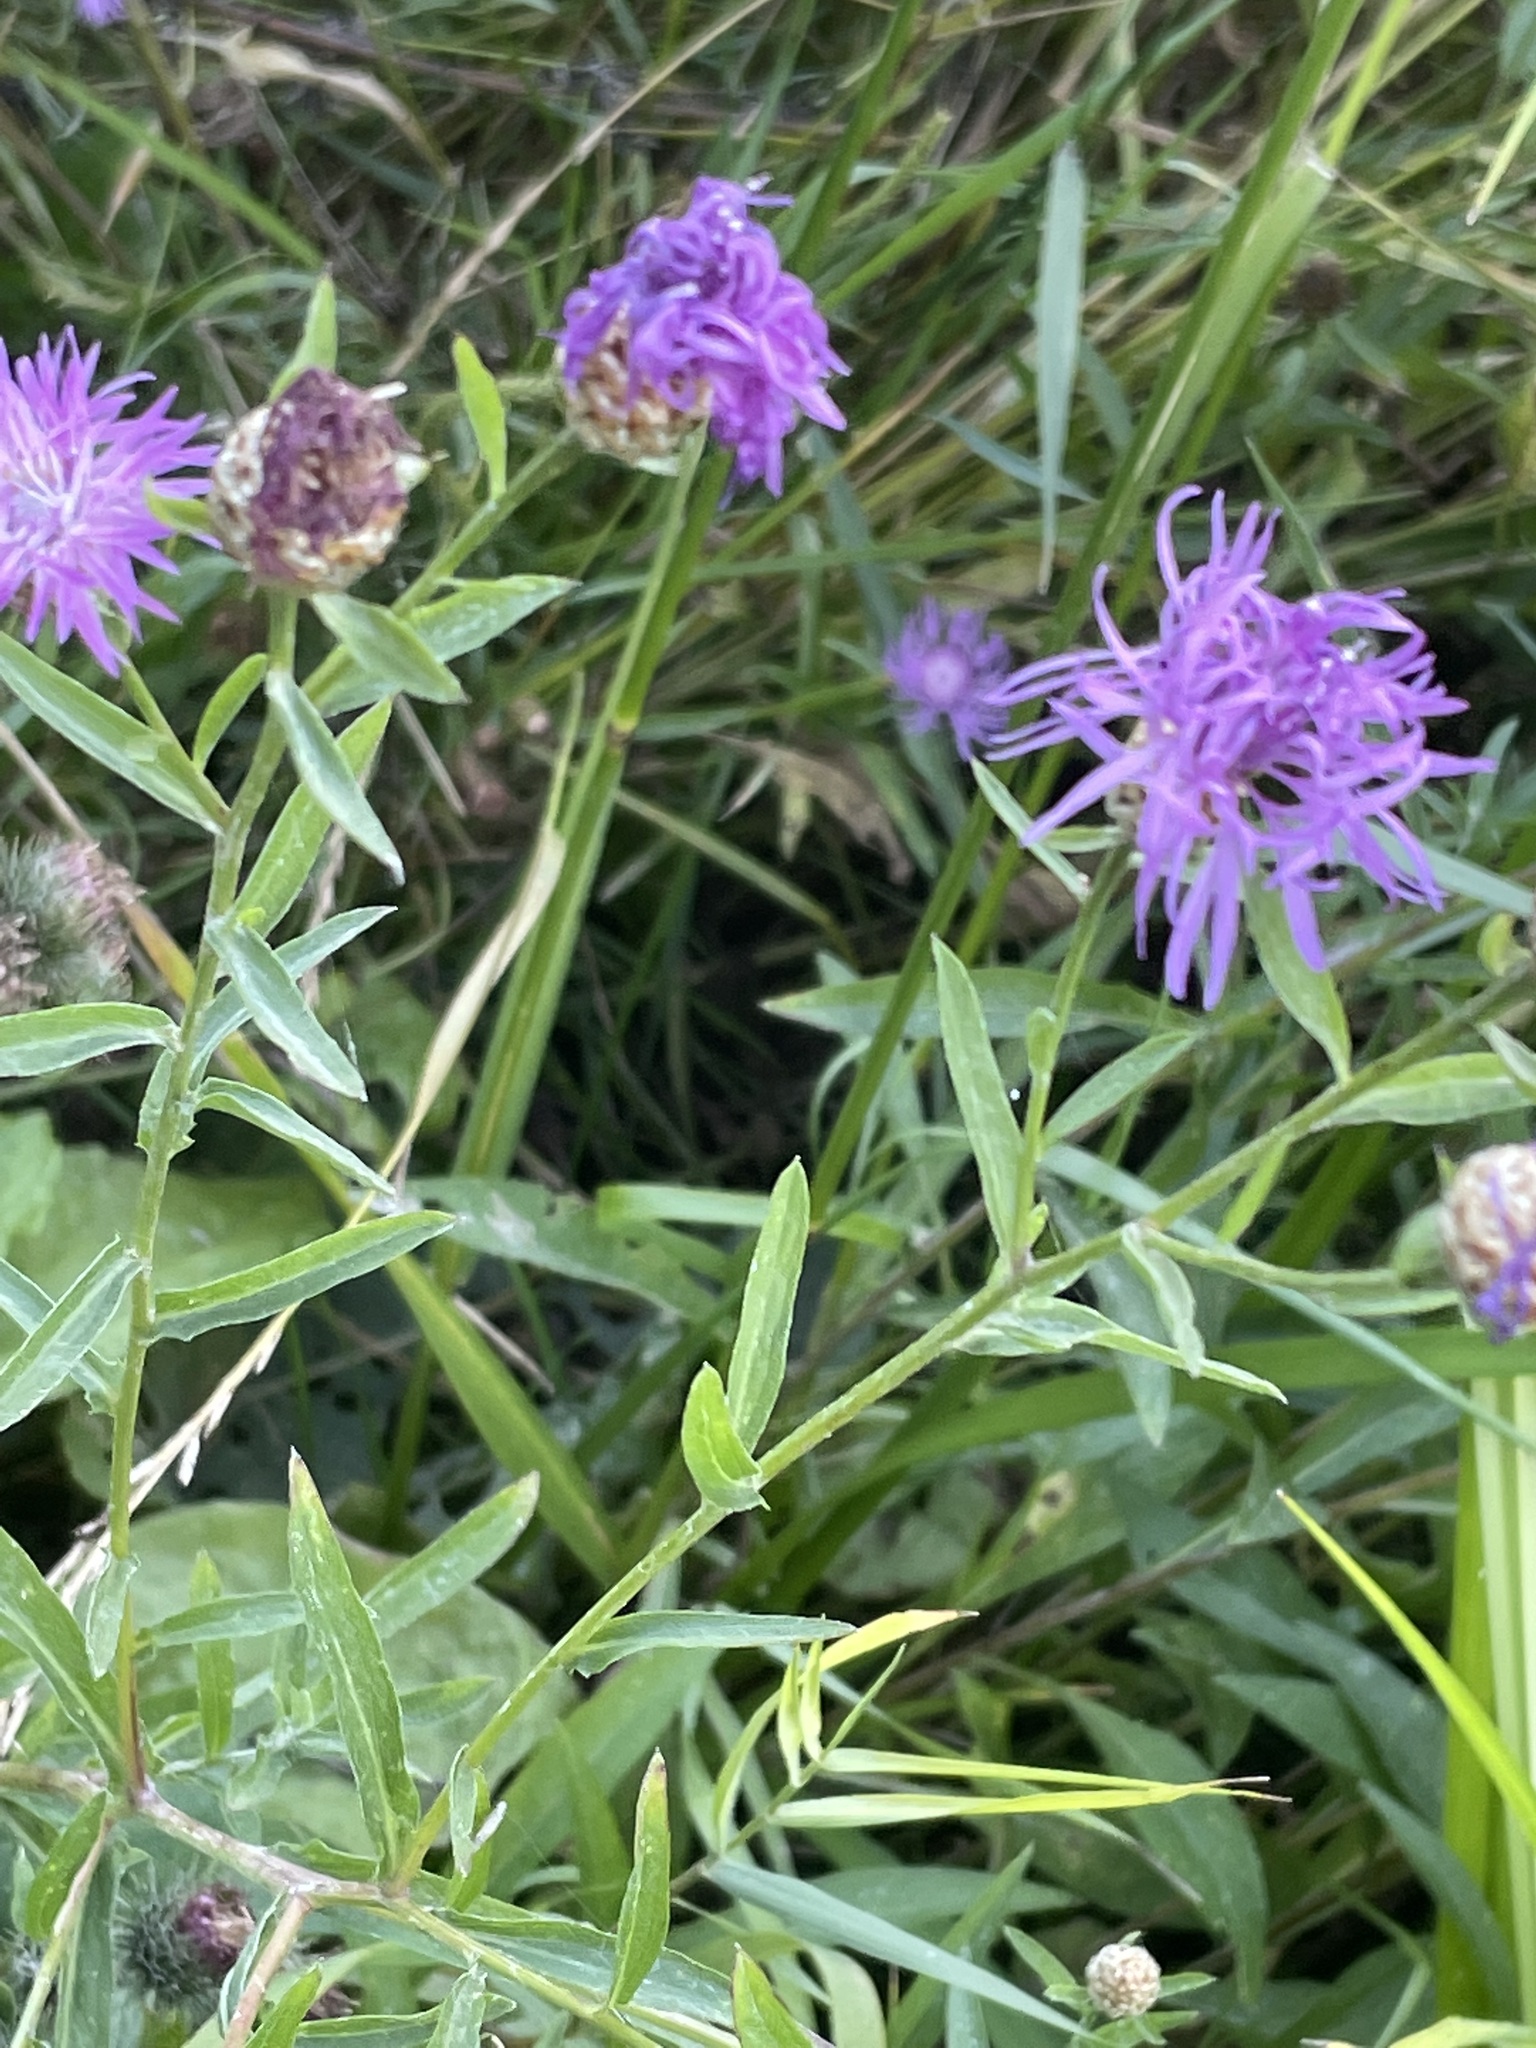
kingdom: Plantae
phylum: Tracheophyta
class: Magnoliopsida
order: Asterales
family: Asteraceae
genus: Centaurea
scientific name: Centaurea jacea
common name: Brown knapweed
